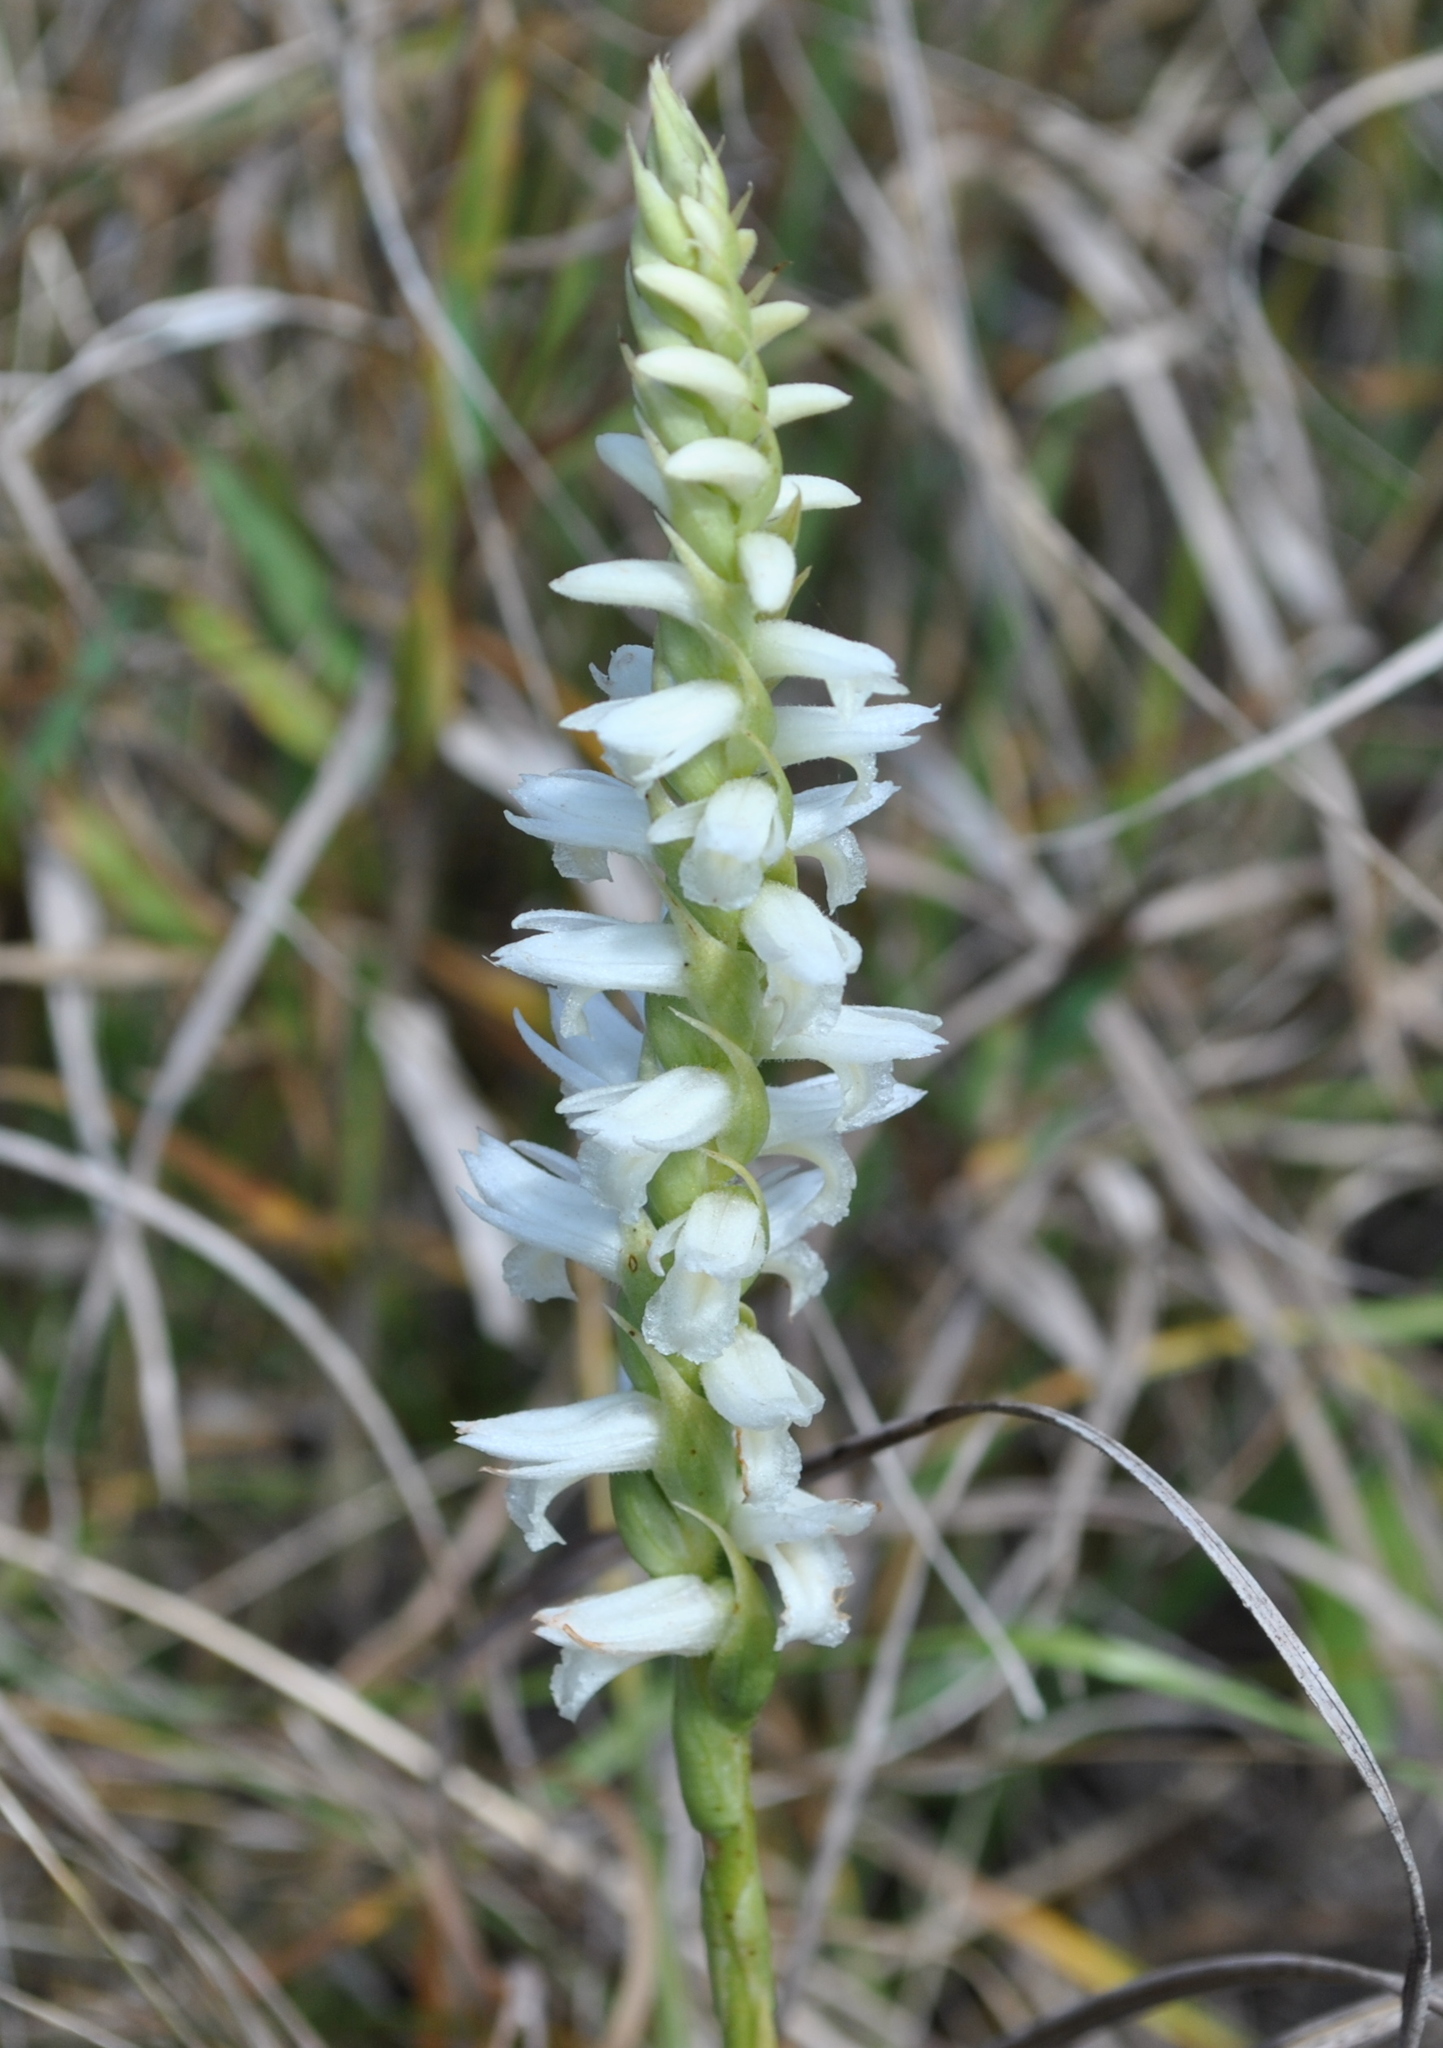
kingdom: Plantae
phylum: Tracheophyta
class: Liliopsida
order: Asparagales
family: Orchidaceae
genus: Spiranthes
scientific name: Spiranthes magnicamporum
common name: Great plains ladies'-tresses
